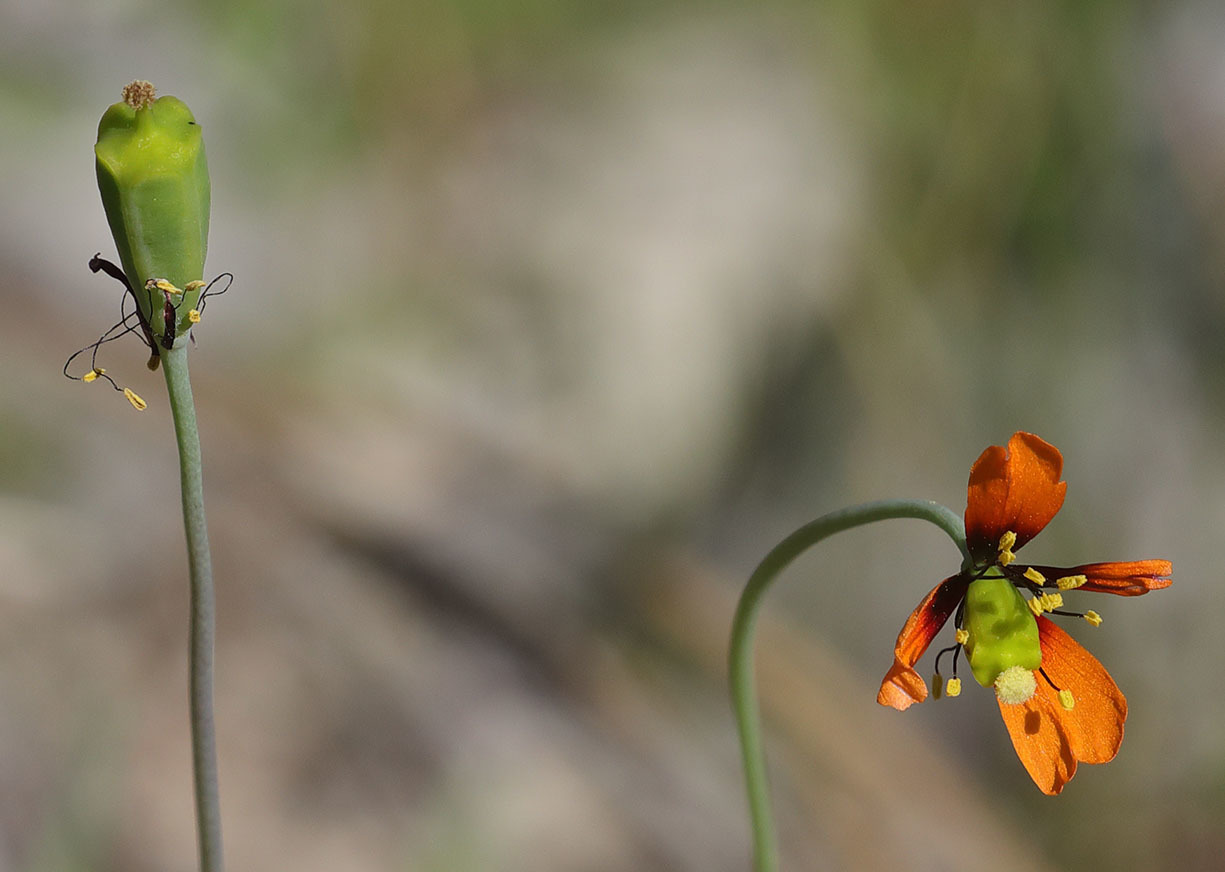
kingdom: Plantae
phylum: Tracheophyta
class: Magnoliopsida
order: Ranunculales
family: Papaveraceae
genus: Stylomecon
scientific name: Stylomecon heterophylla
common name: Flaming-poppy
